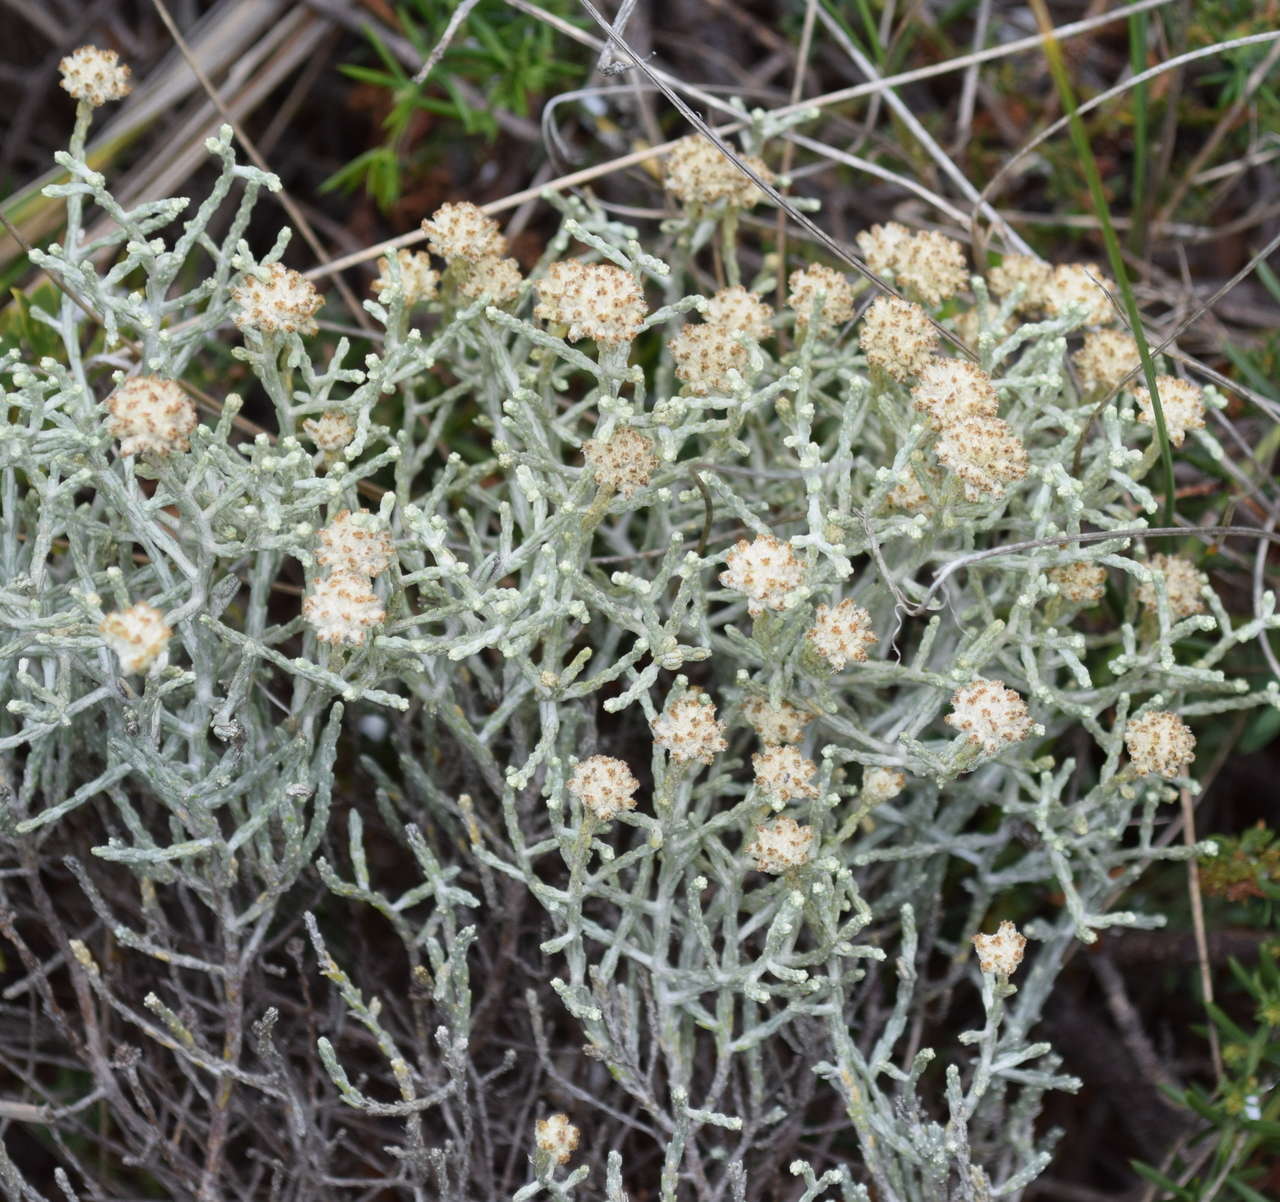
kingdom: Plantae
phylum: Tracheophyta
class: Magnoliopsida
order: Asterales
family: Asteraceae
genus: Calocephalus
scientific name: Calocephalus brownii
